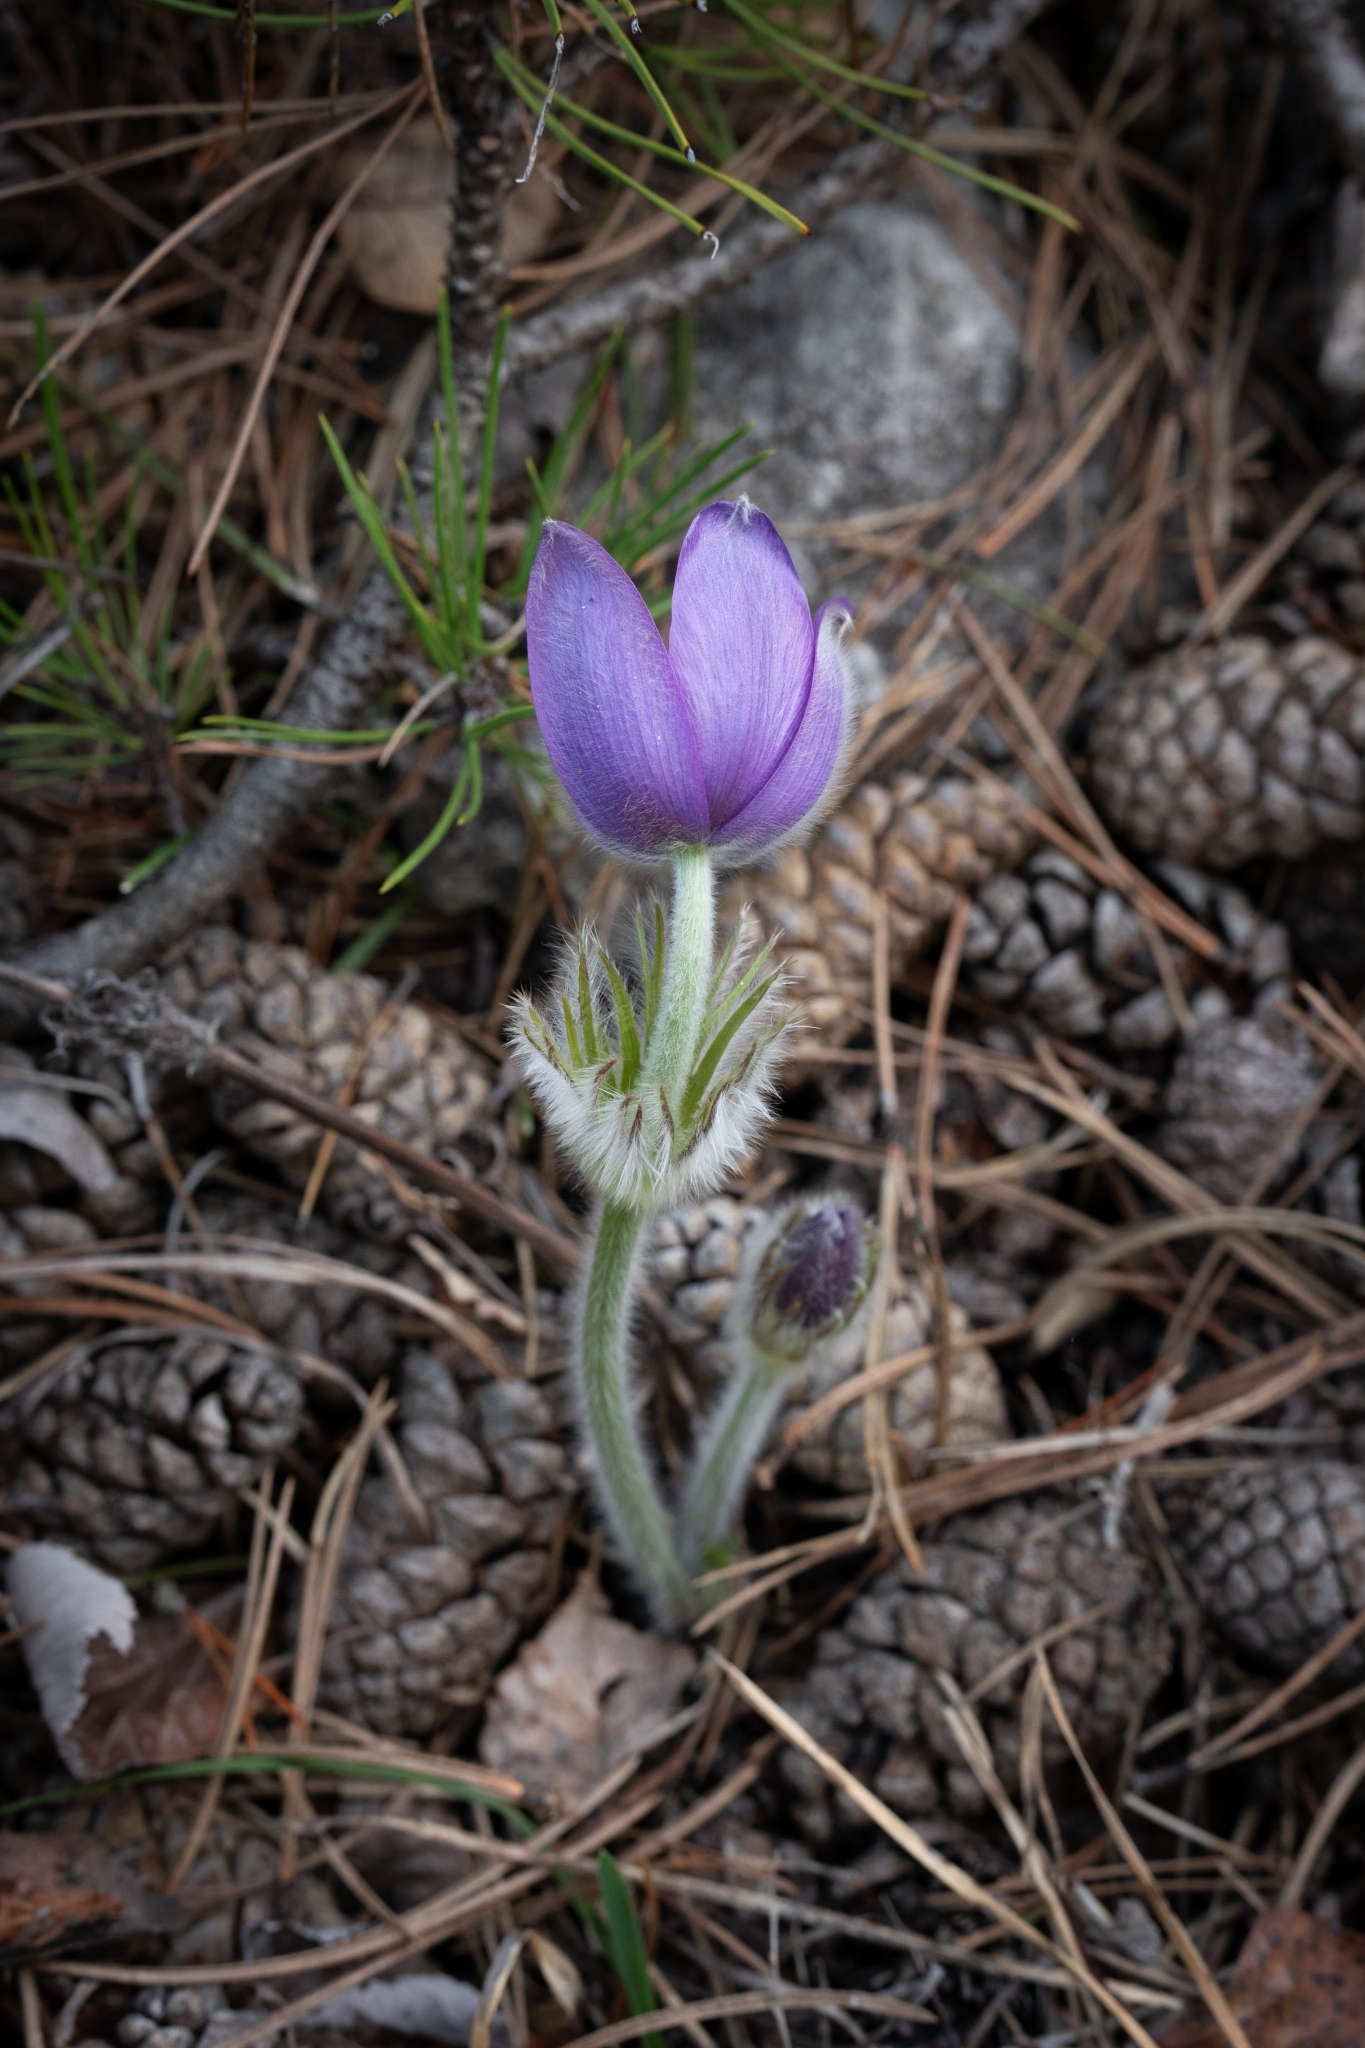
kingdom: Plantae
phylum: Tracheophyta
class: Magnoliopsida
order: Ranunculales
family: Ranunculaceae
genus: Pulsatilla
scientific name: Pulsatilla grandis
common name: Greater pasque flower
